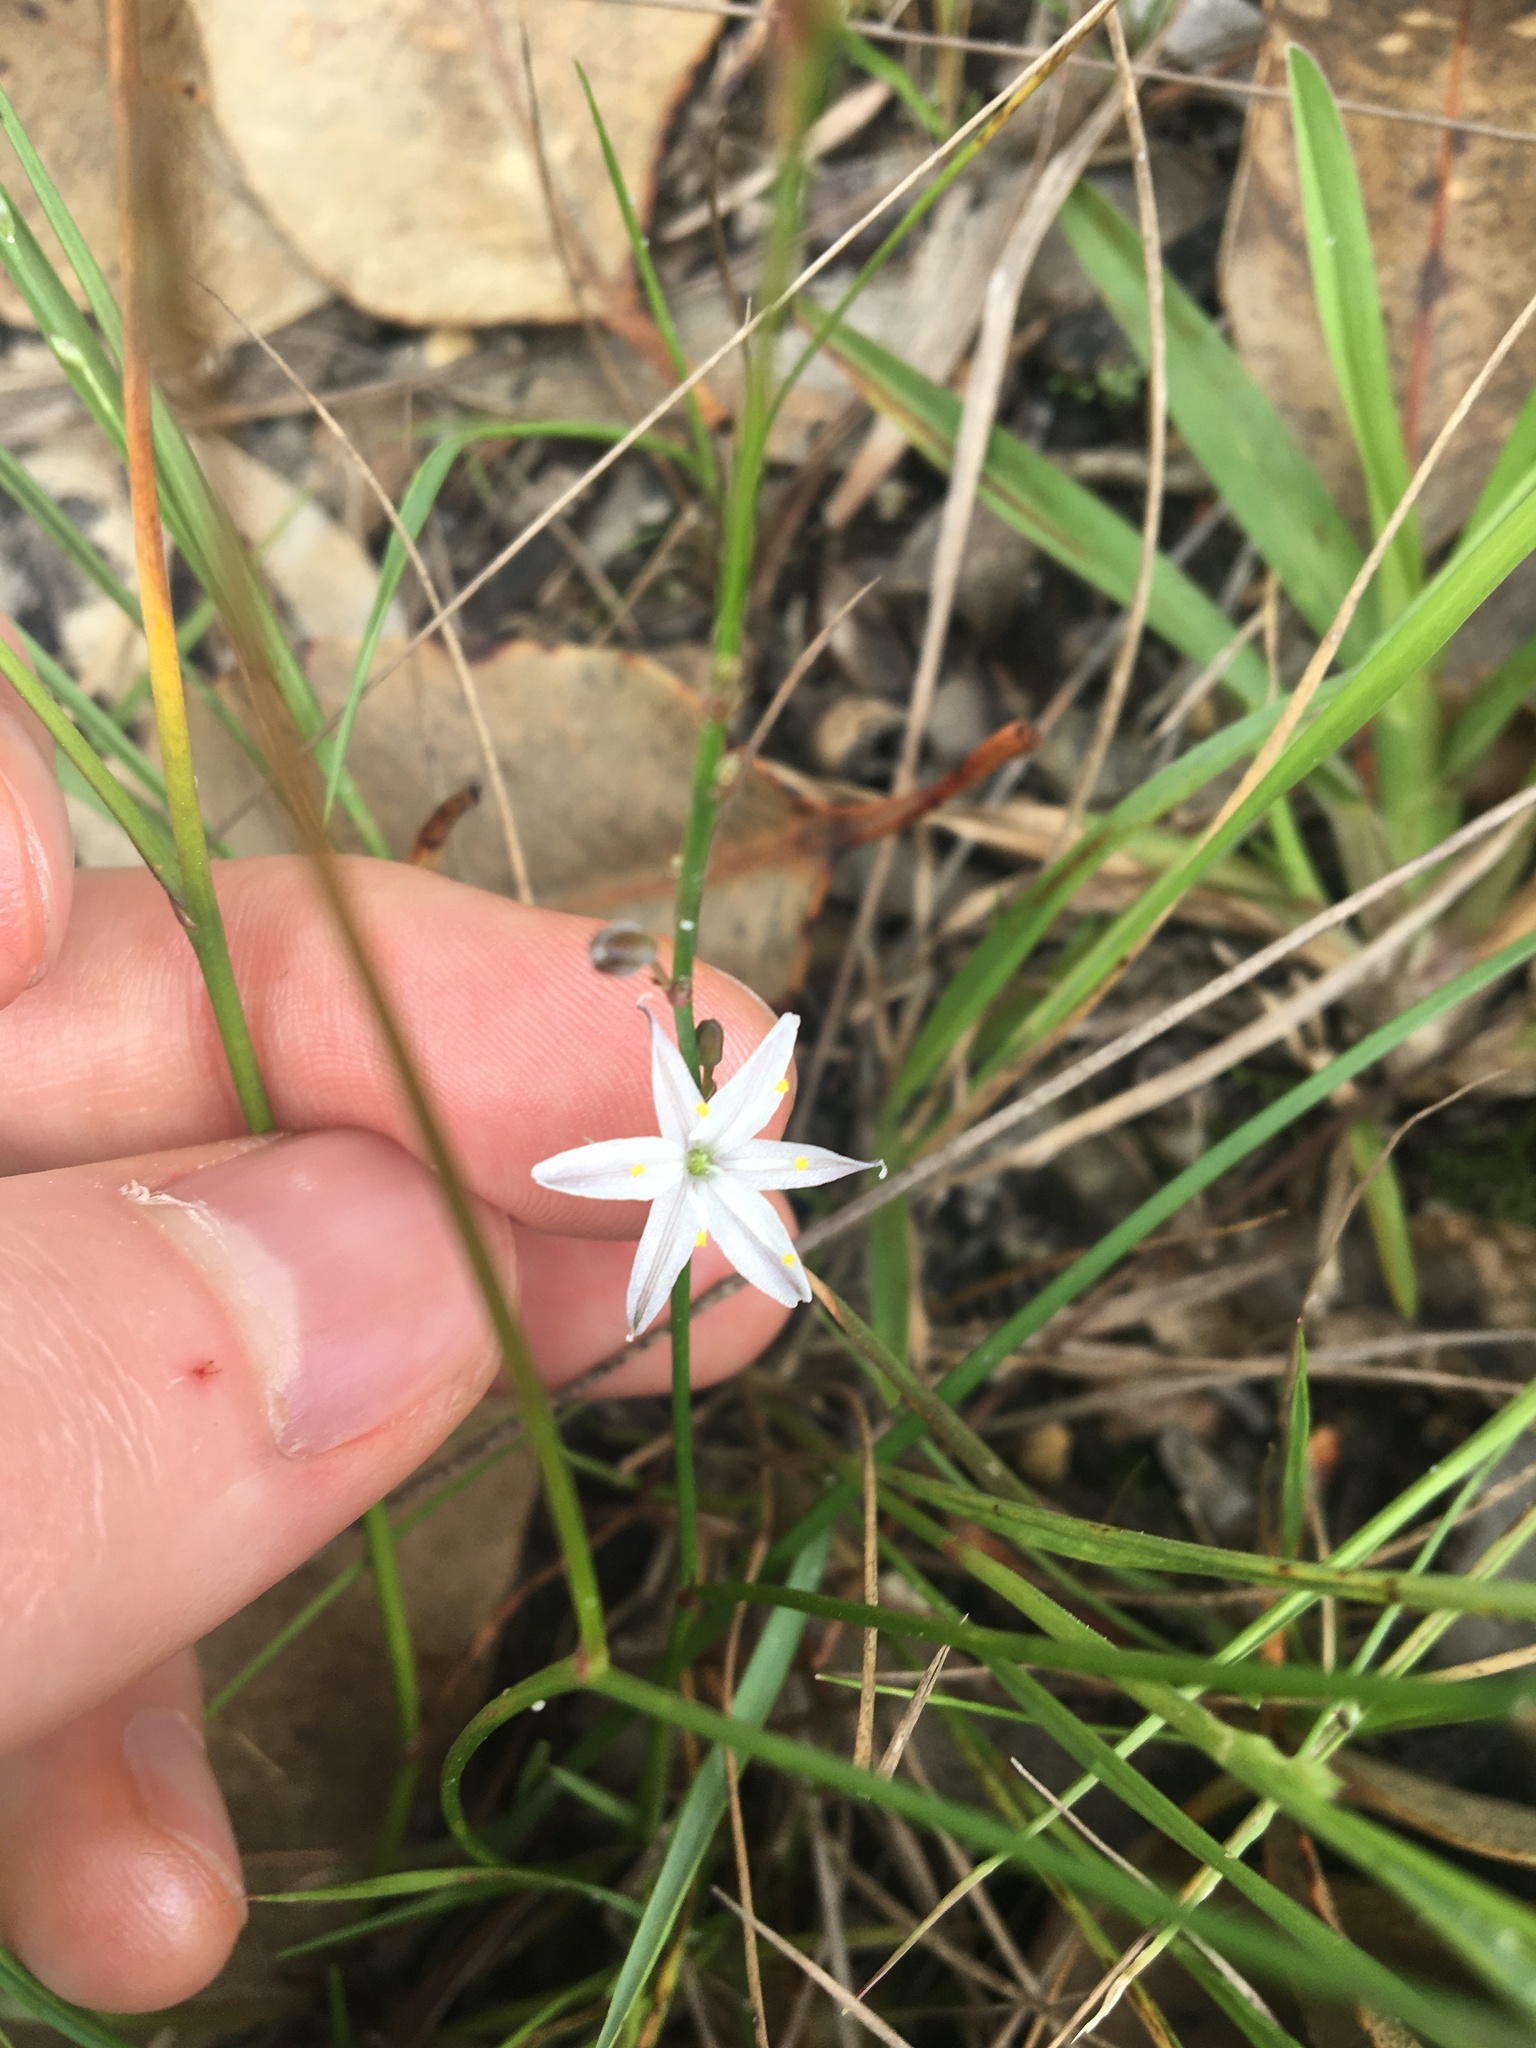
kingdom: Plantae
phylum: Tracheophyta
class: Liliopsida
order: Asparagales
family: Asphodelaceae
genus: Caesia
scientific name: Caesia parviflora
